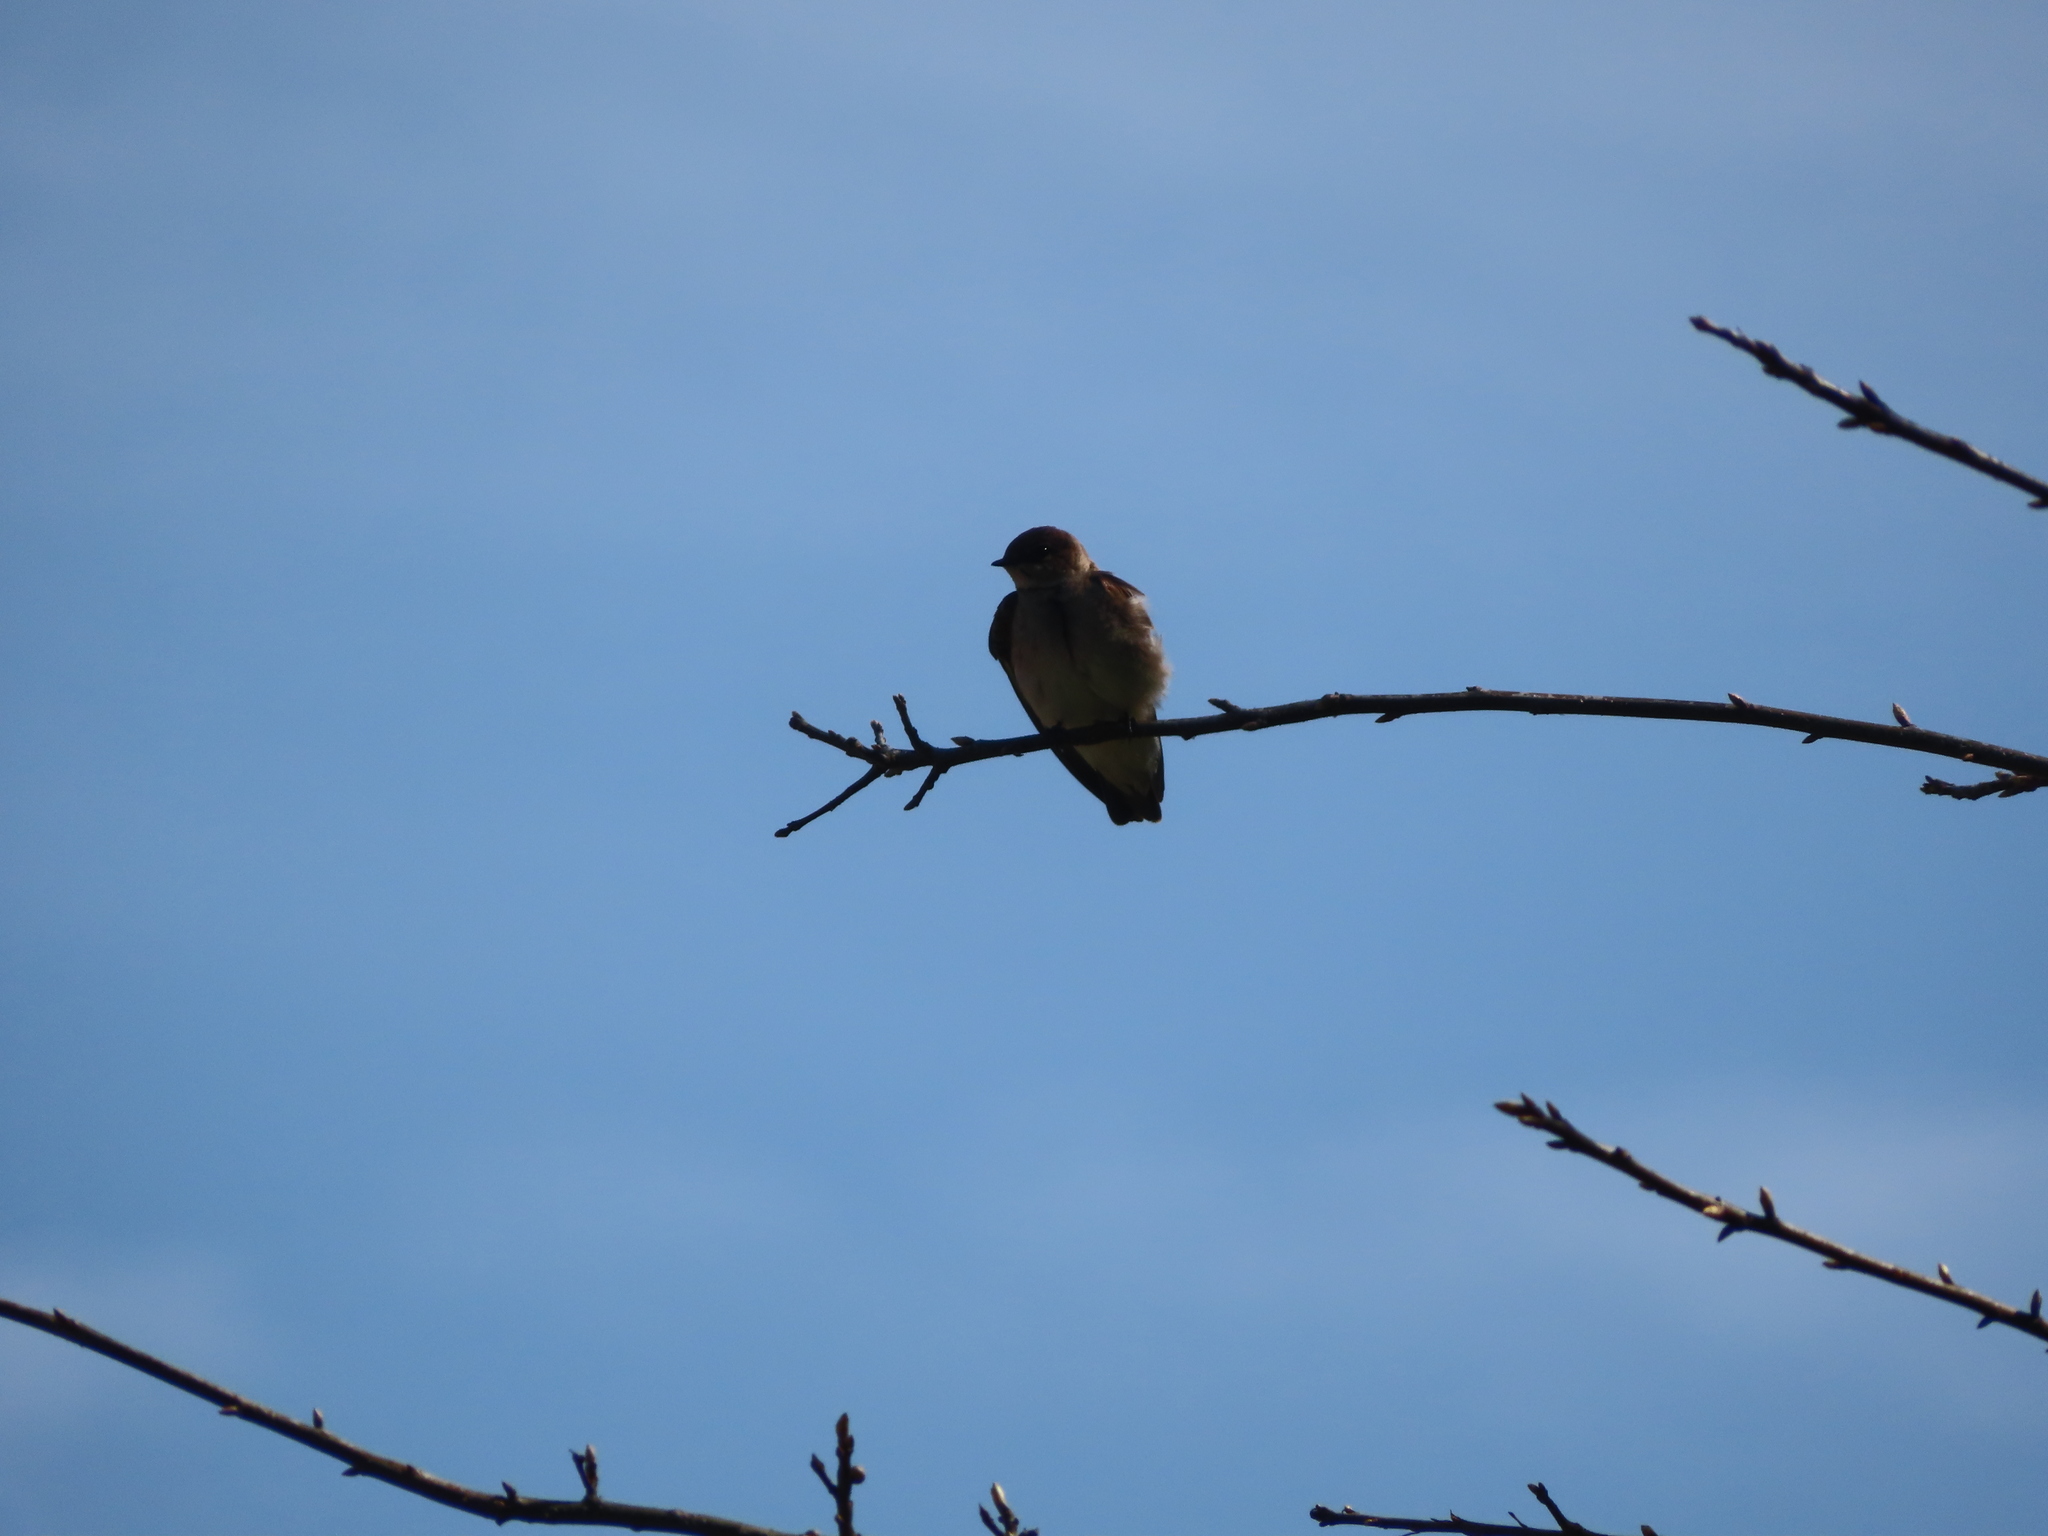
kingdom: Animalia
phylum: Chordata
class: Aves
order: Passeriformes
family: Hirundinidae
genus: Stelgidopteryx
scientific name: Stelgidopteryx serripennis
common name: Northern rough-winged swallow
